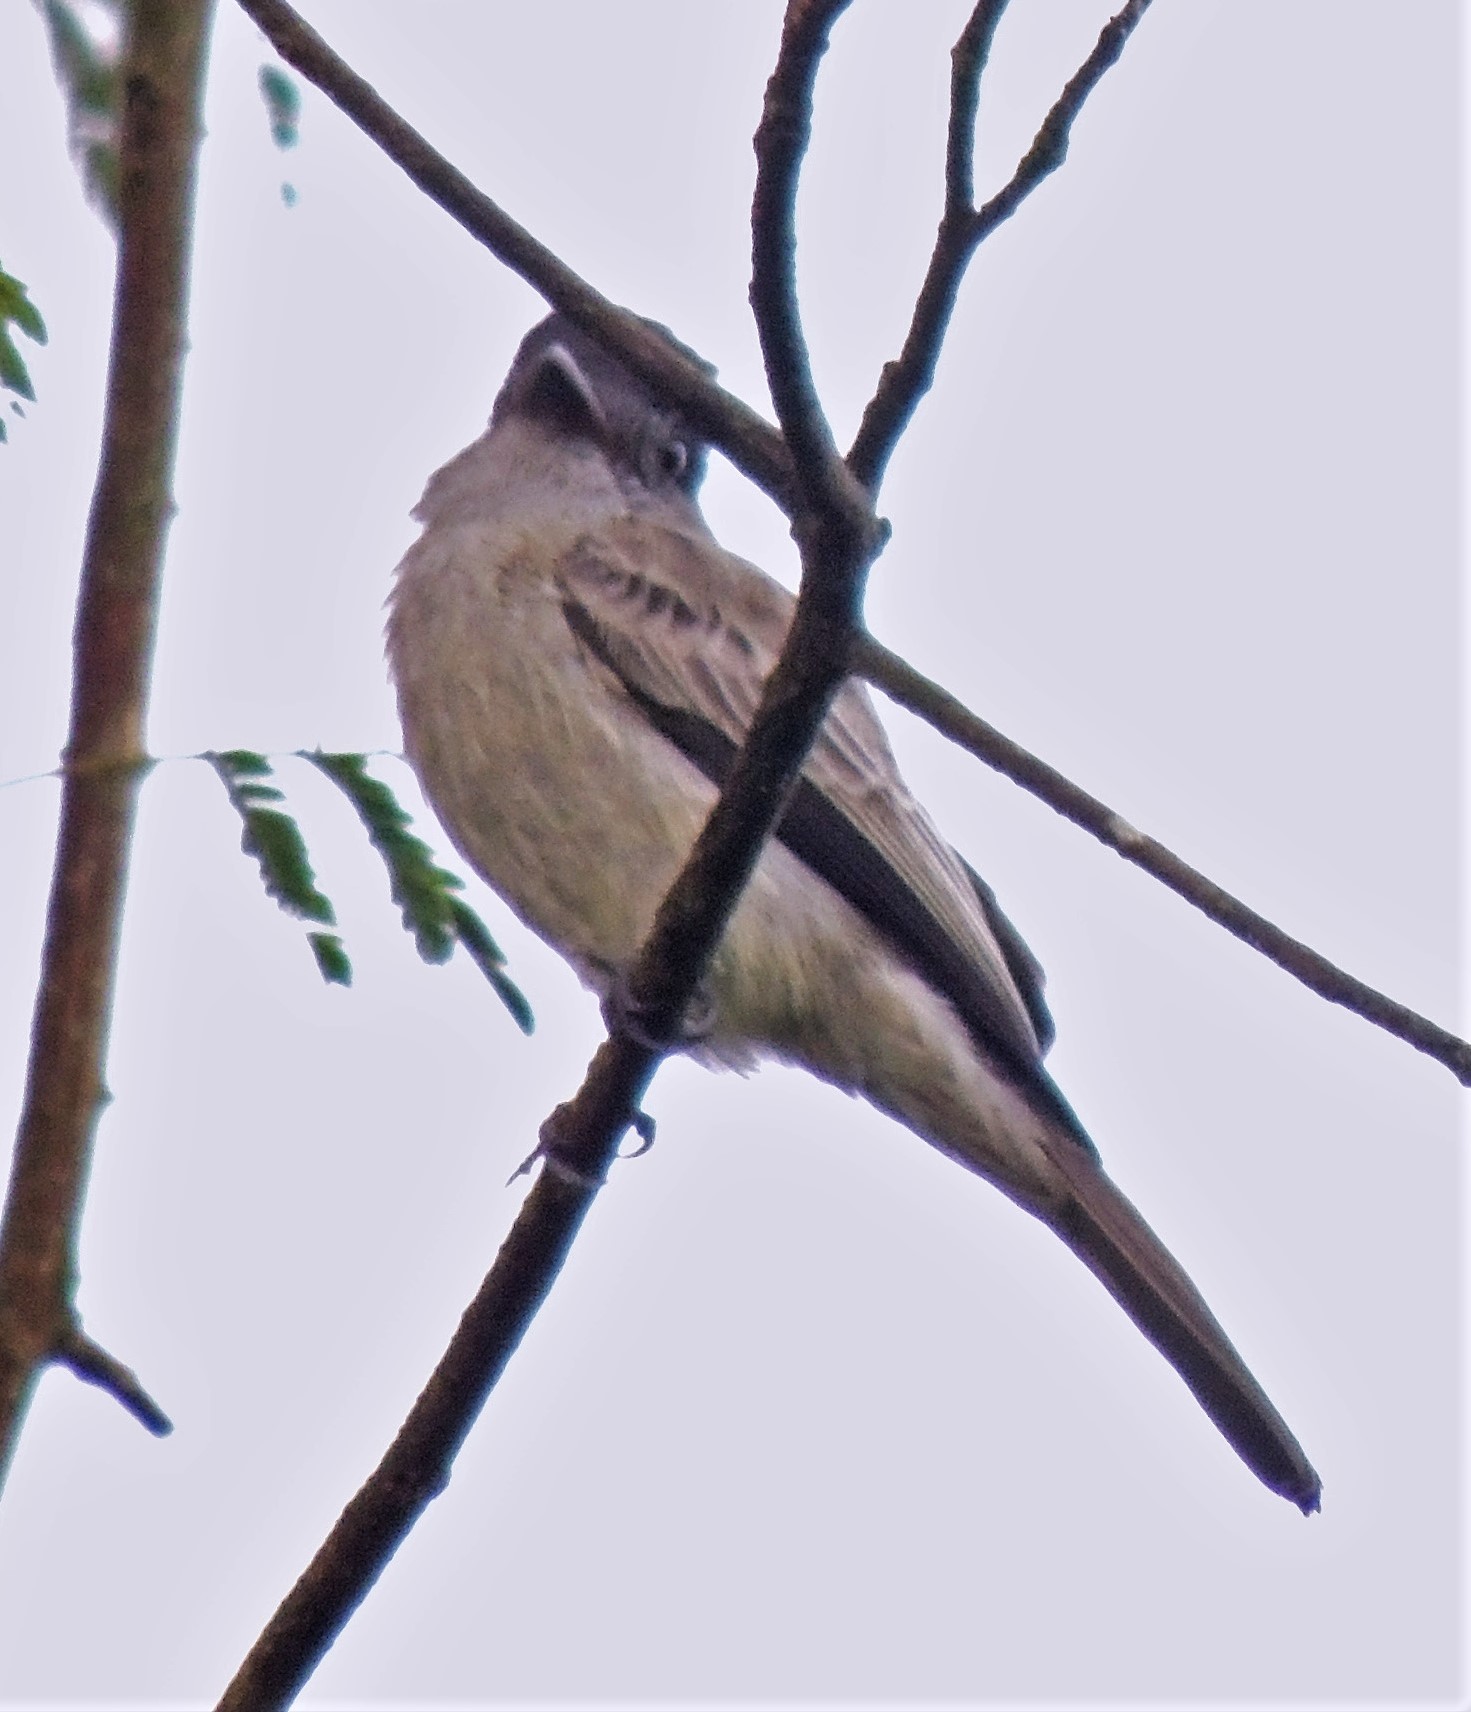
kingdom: Animalia
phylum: Chordata
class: Aves
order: Passeriformes
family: Tyrannidae
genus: Sirystes
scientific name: Sirystes sibilator
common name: Sirystes
